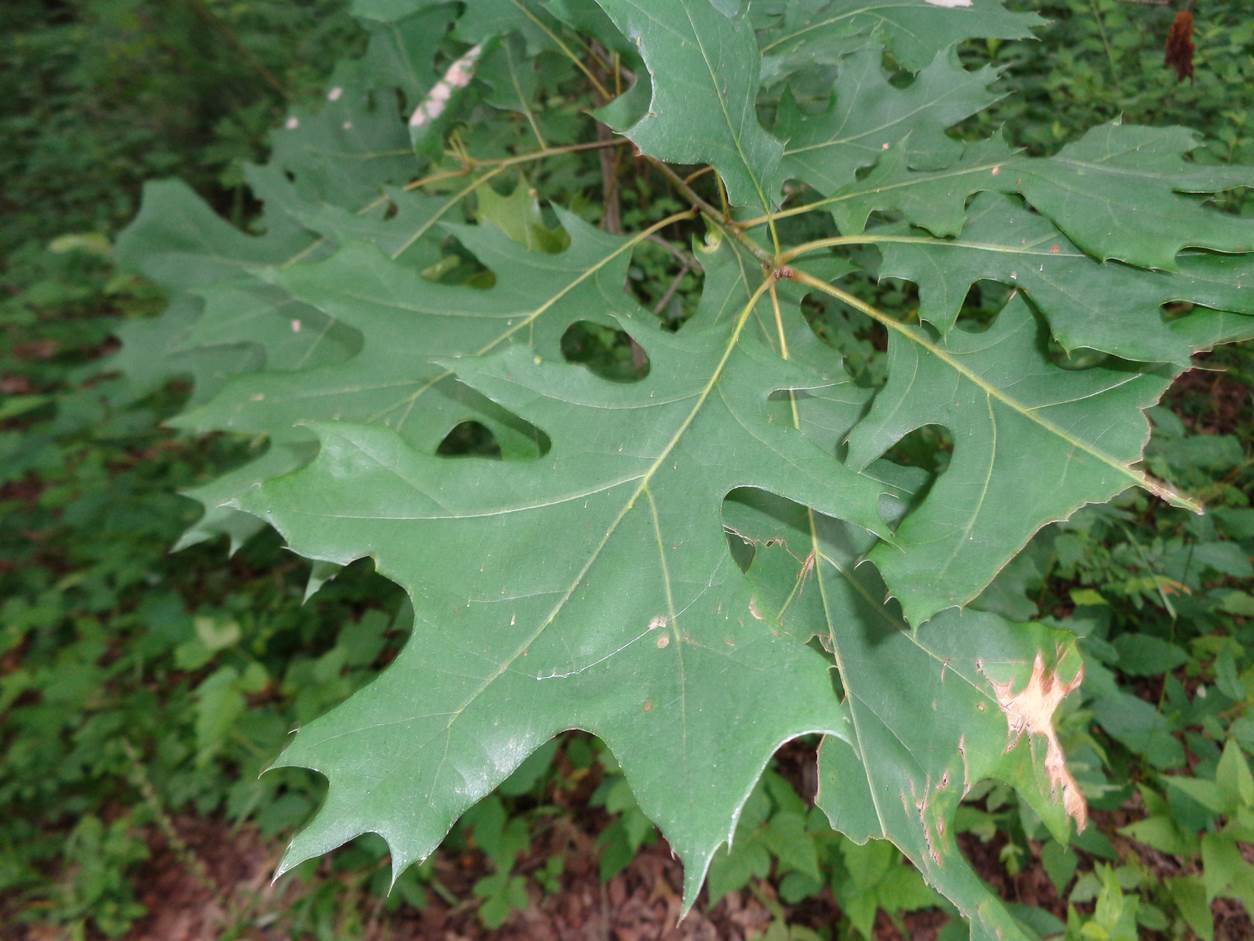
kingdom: Plantae
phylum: Tracheophyta
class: Magnoliopsida
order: Fagales
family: Fagaceae
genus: Quercus
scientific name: Quercus shumardii
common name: Shumard oak
